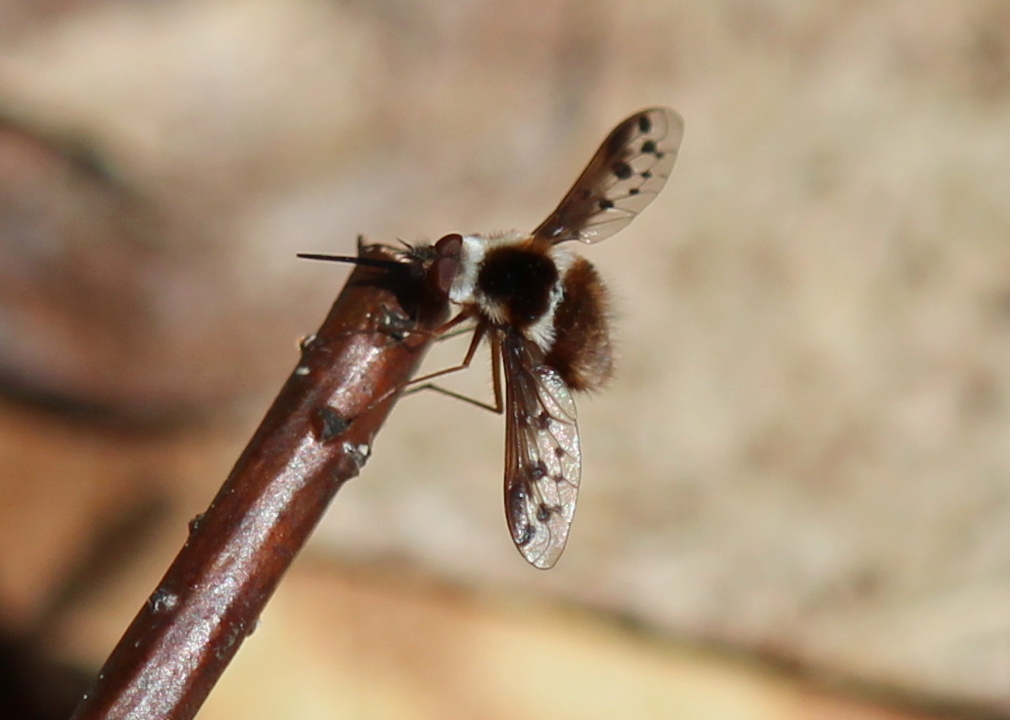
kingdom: Animalia
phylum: Arthropoda
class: Insecta
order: Diptera
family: Bombyliidae
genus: Bombylius
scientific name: Bombylius pygmaeus
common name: Pygmy bee fly
